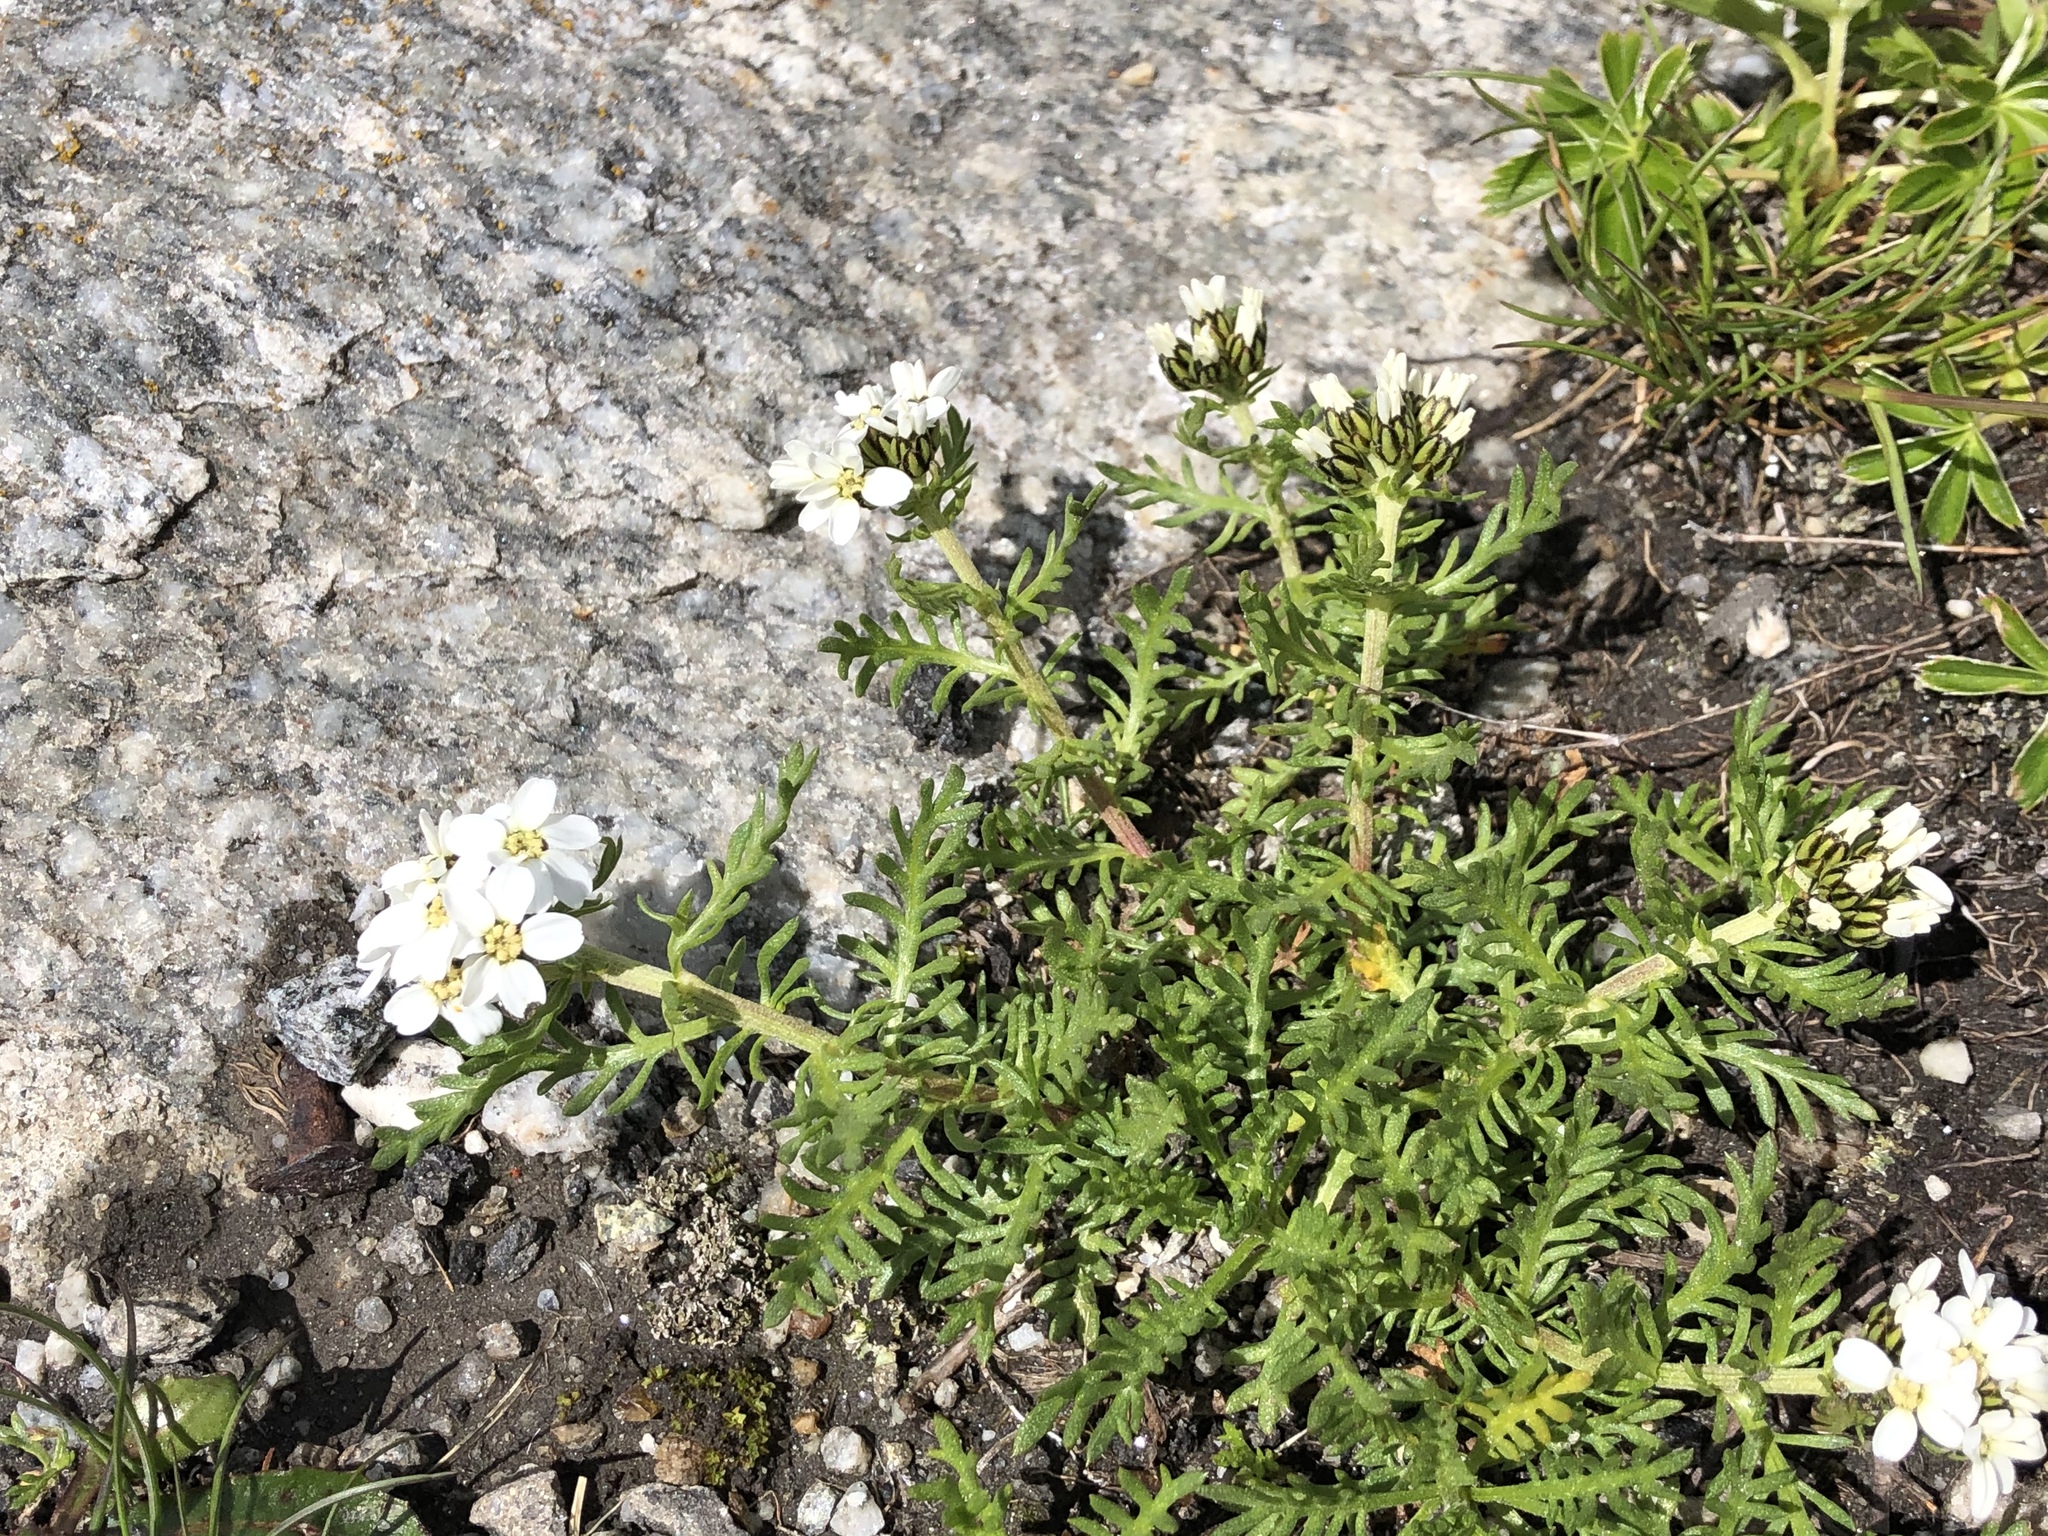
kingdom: Plantae
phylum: Tracheophyta
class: Magnoliopsida
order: Asterales
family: Asteraceae
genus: Achillea
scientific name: Achillea erba-rotta
